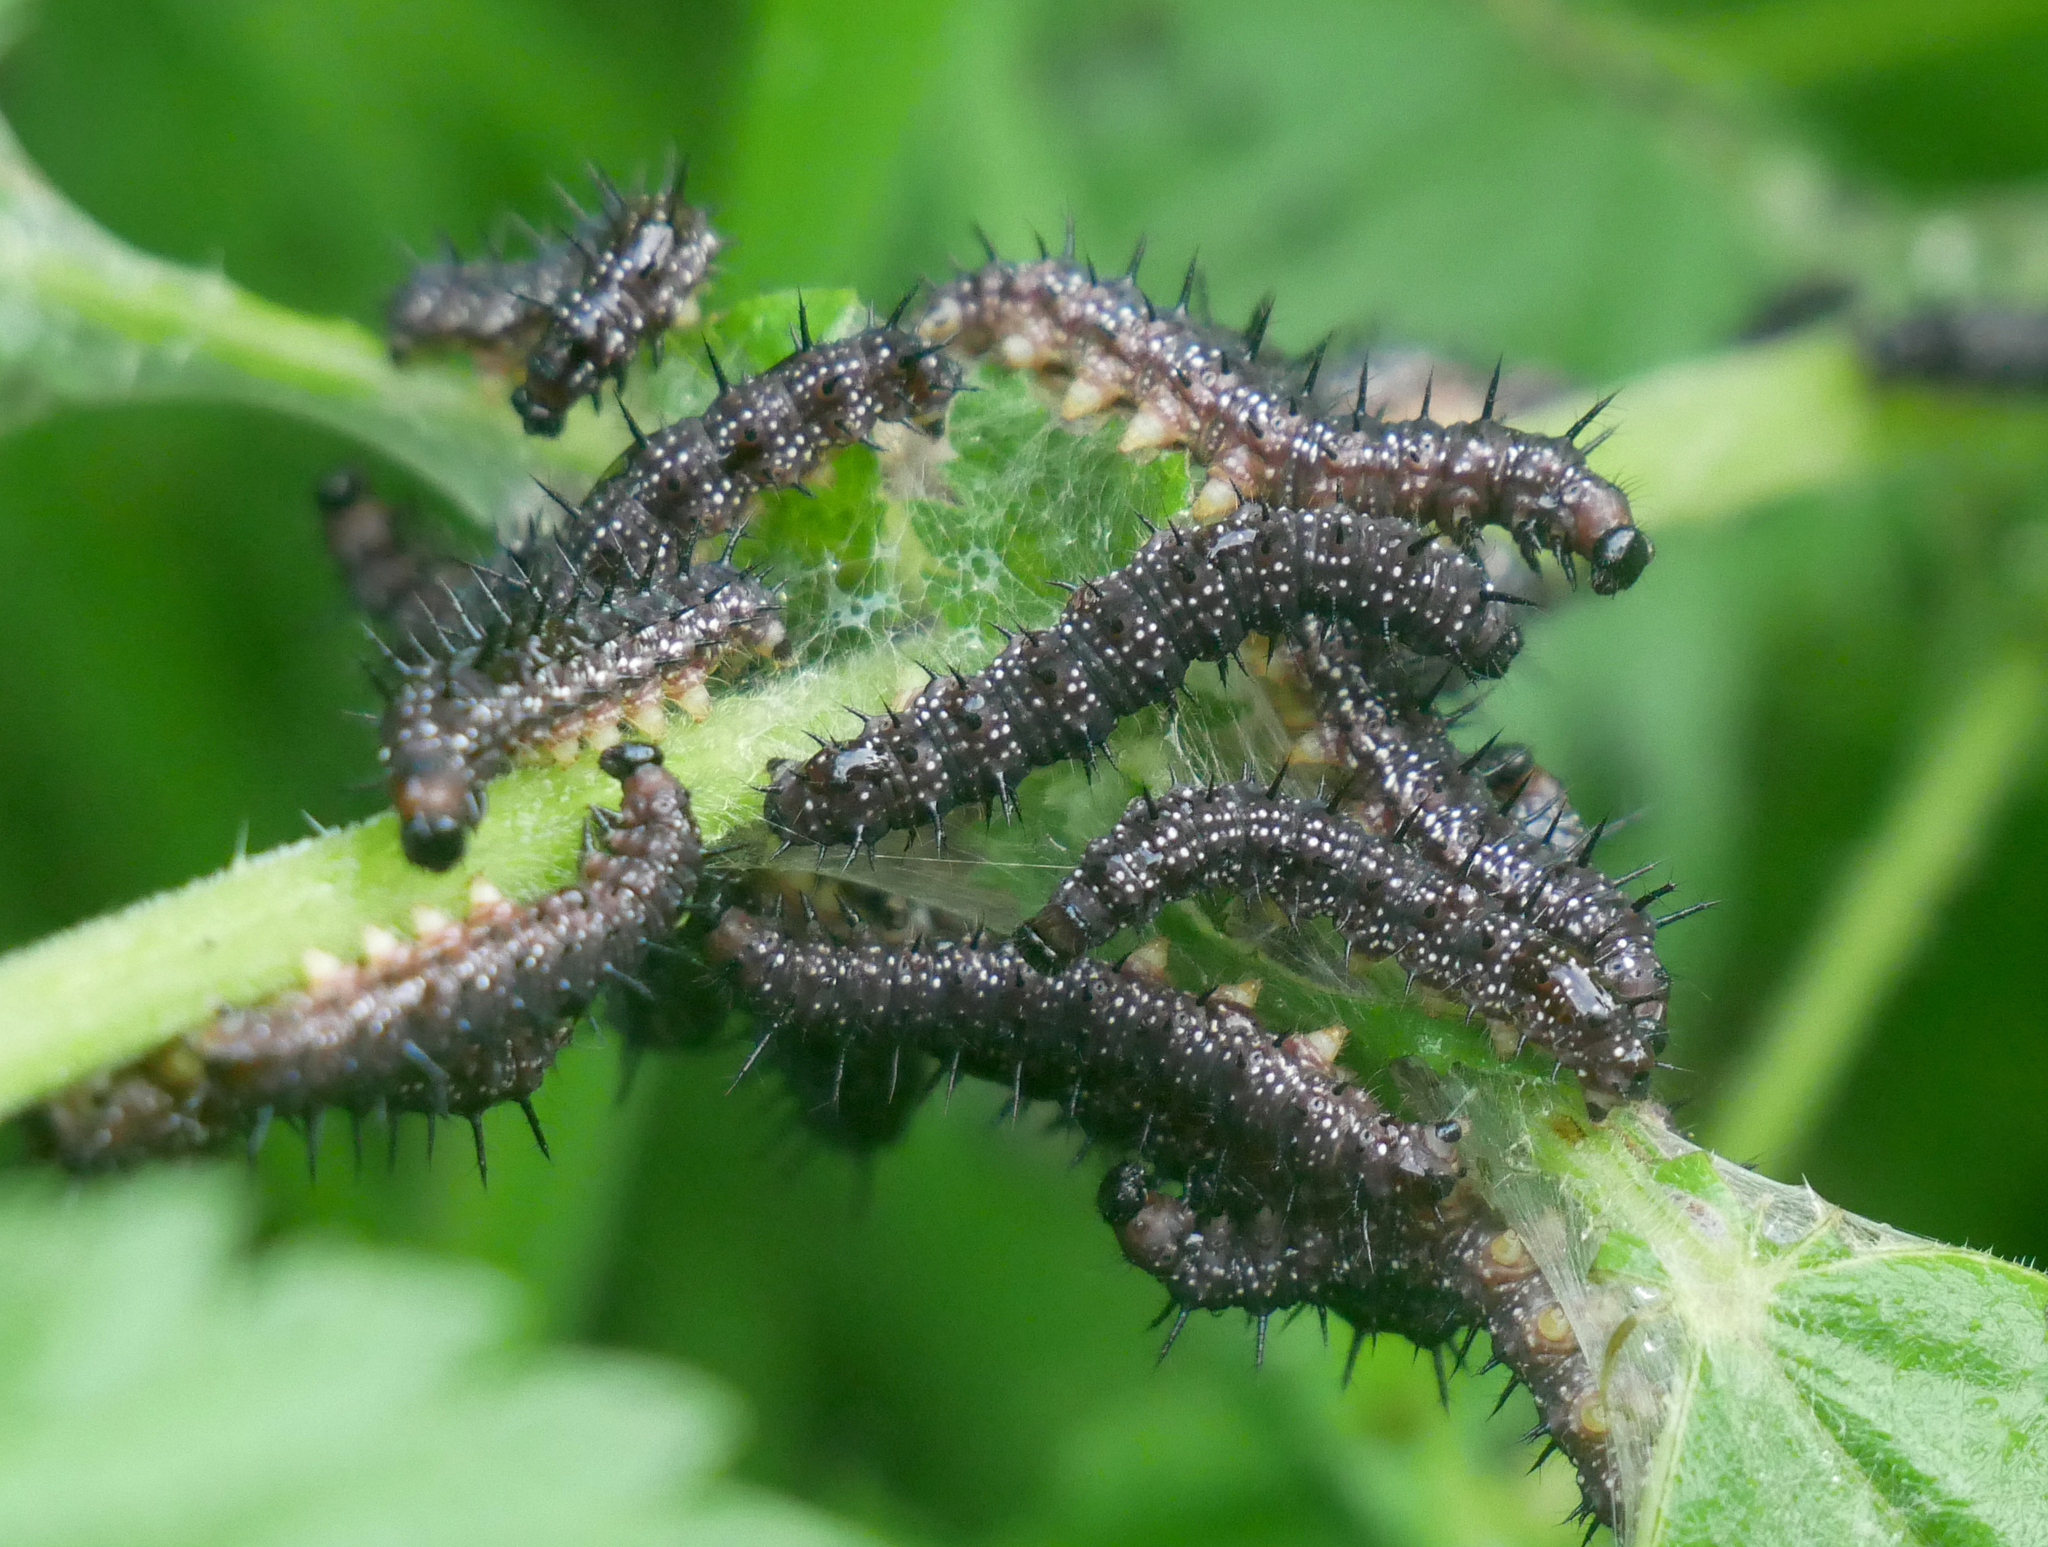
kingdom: Animalia
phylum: Arthropoda
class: Insecta
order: Lepidoptera
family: Nymphalidae
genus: Aglais
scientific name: Aglais io
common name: Peacock
